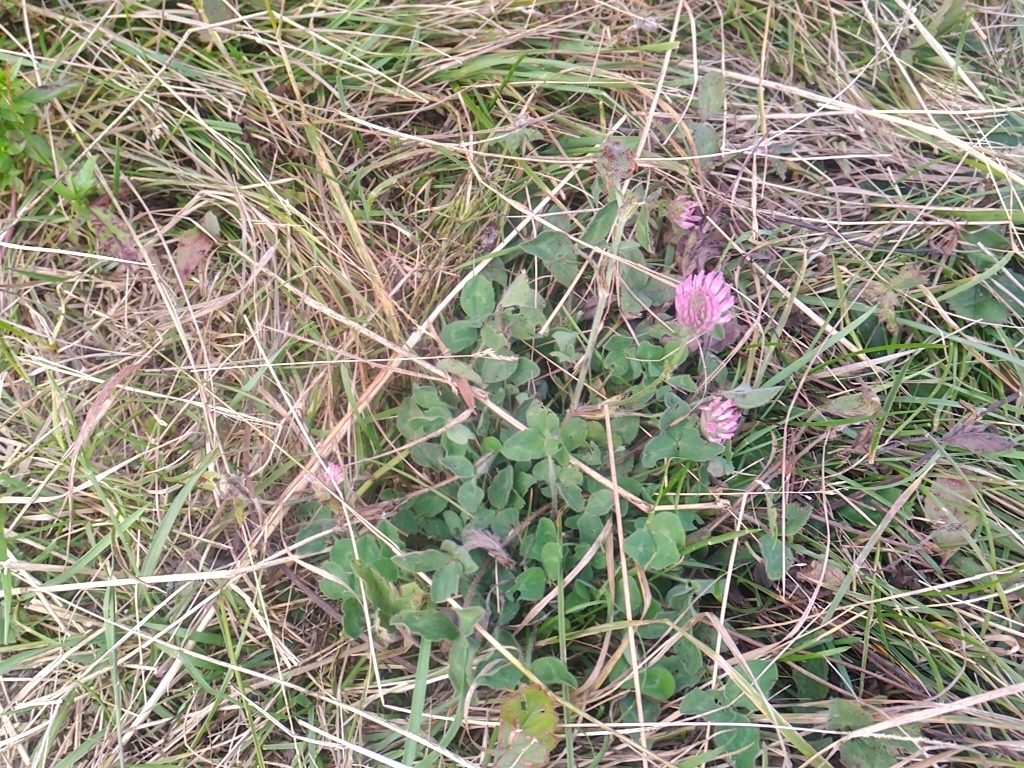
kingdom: Plantae
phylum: Tracheophyta
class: Magnoliopsida
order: Fabales
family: Fabaceae
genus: Trifolium
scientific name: Trifolium pratense
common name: Red clover
